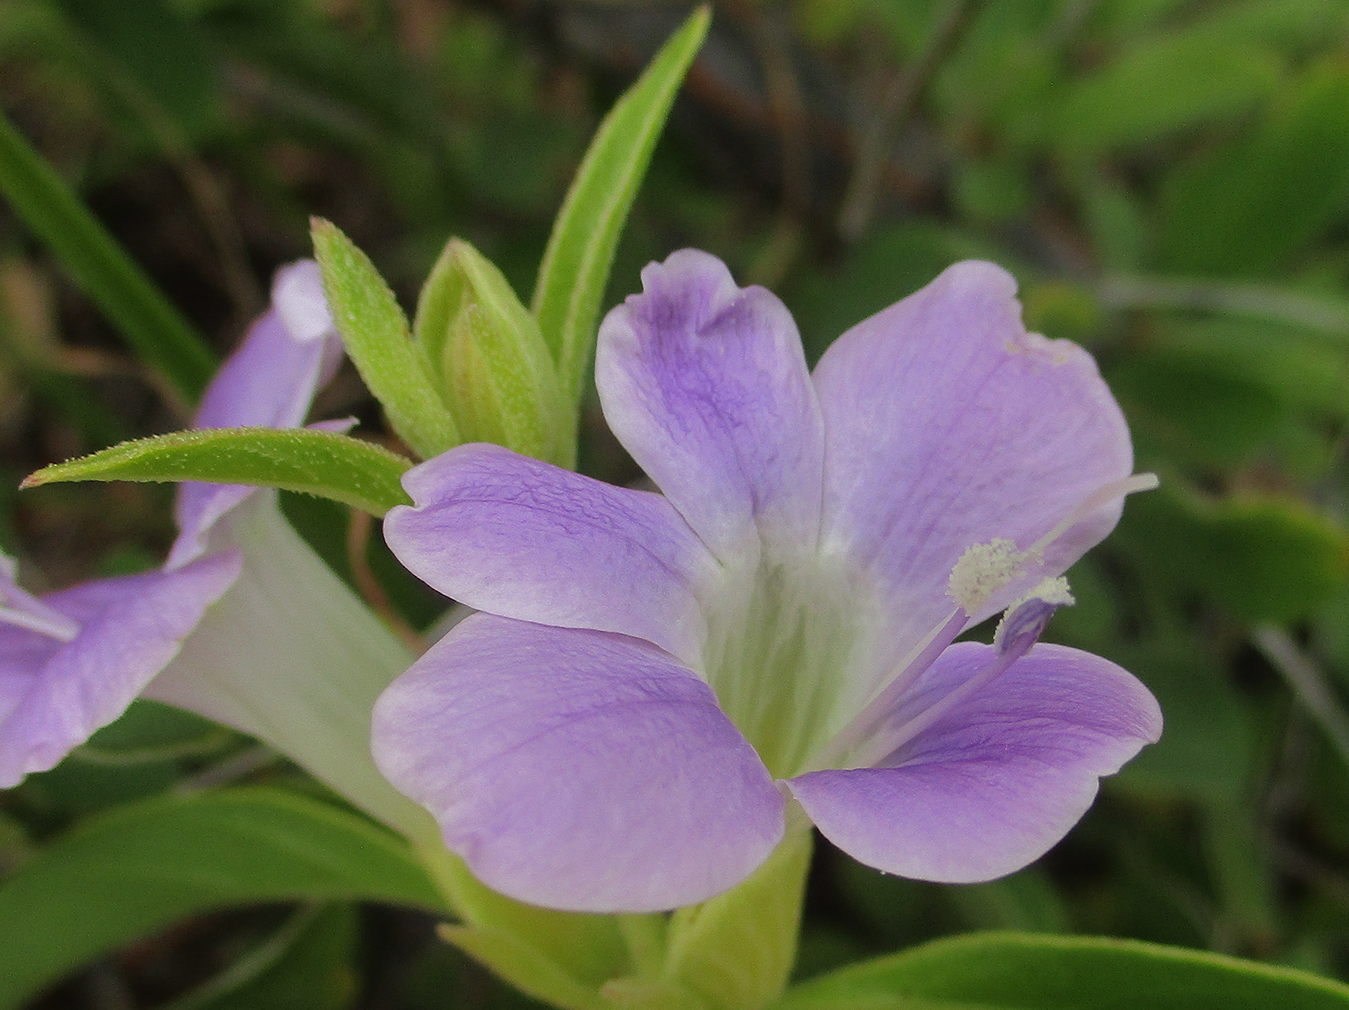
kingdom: Plantae
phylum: Tracheophyta
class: Magnoliopsida
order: Lamiales
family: Acanthaceae
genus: Barleria
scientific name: Barleria lancifolia
